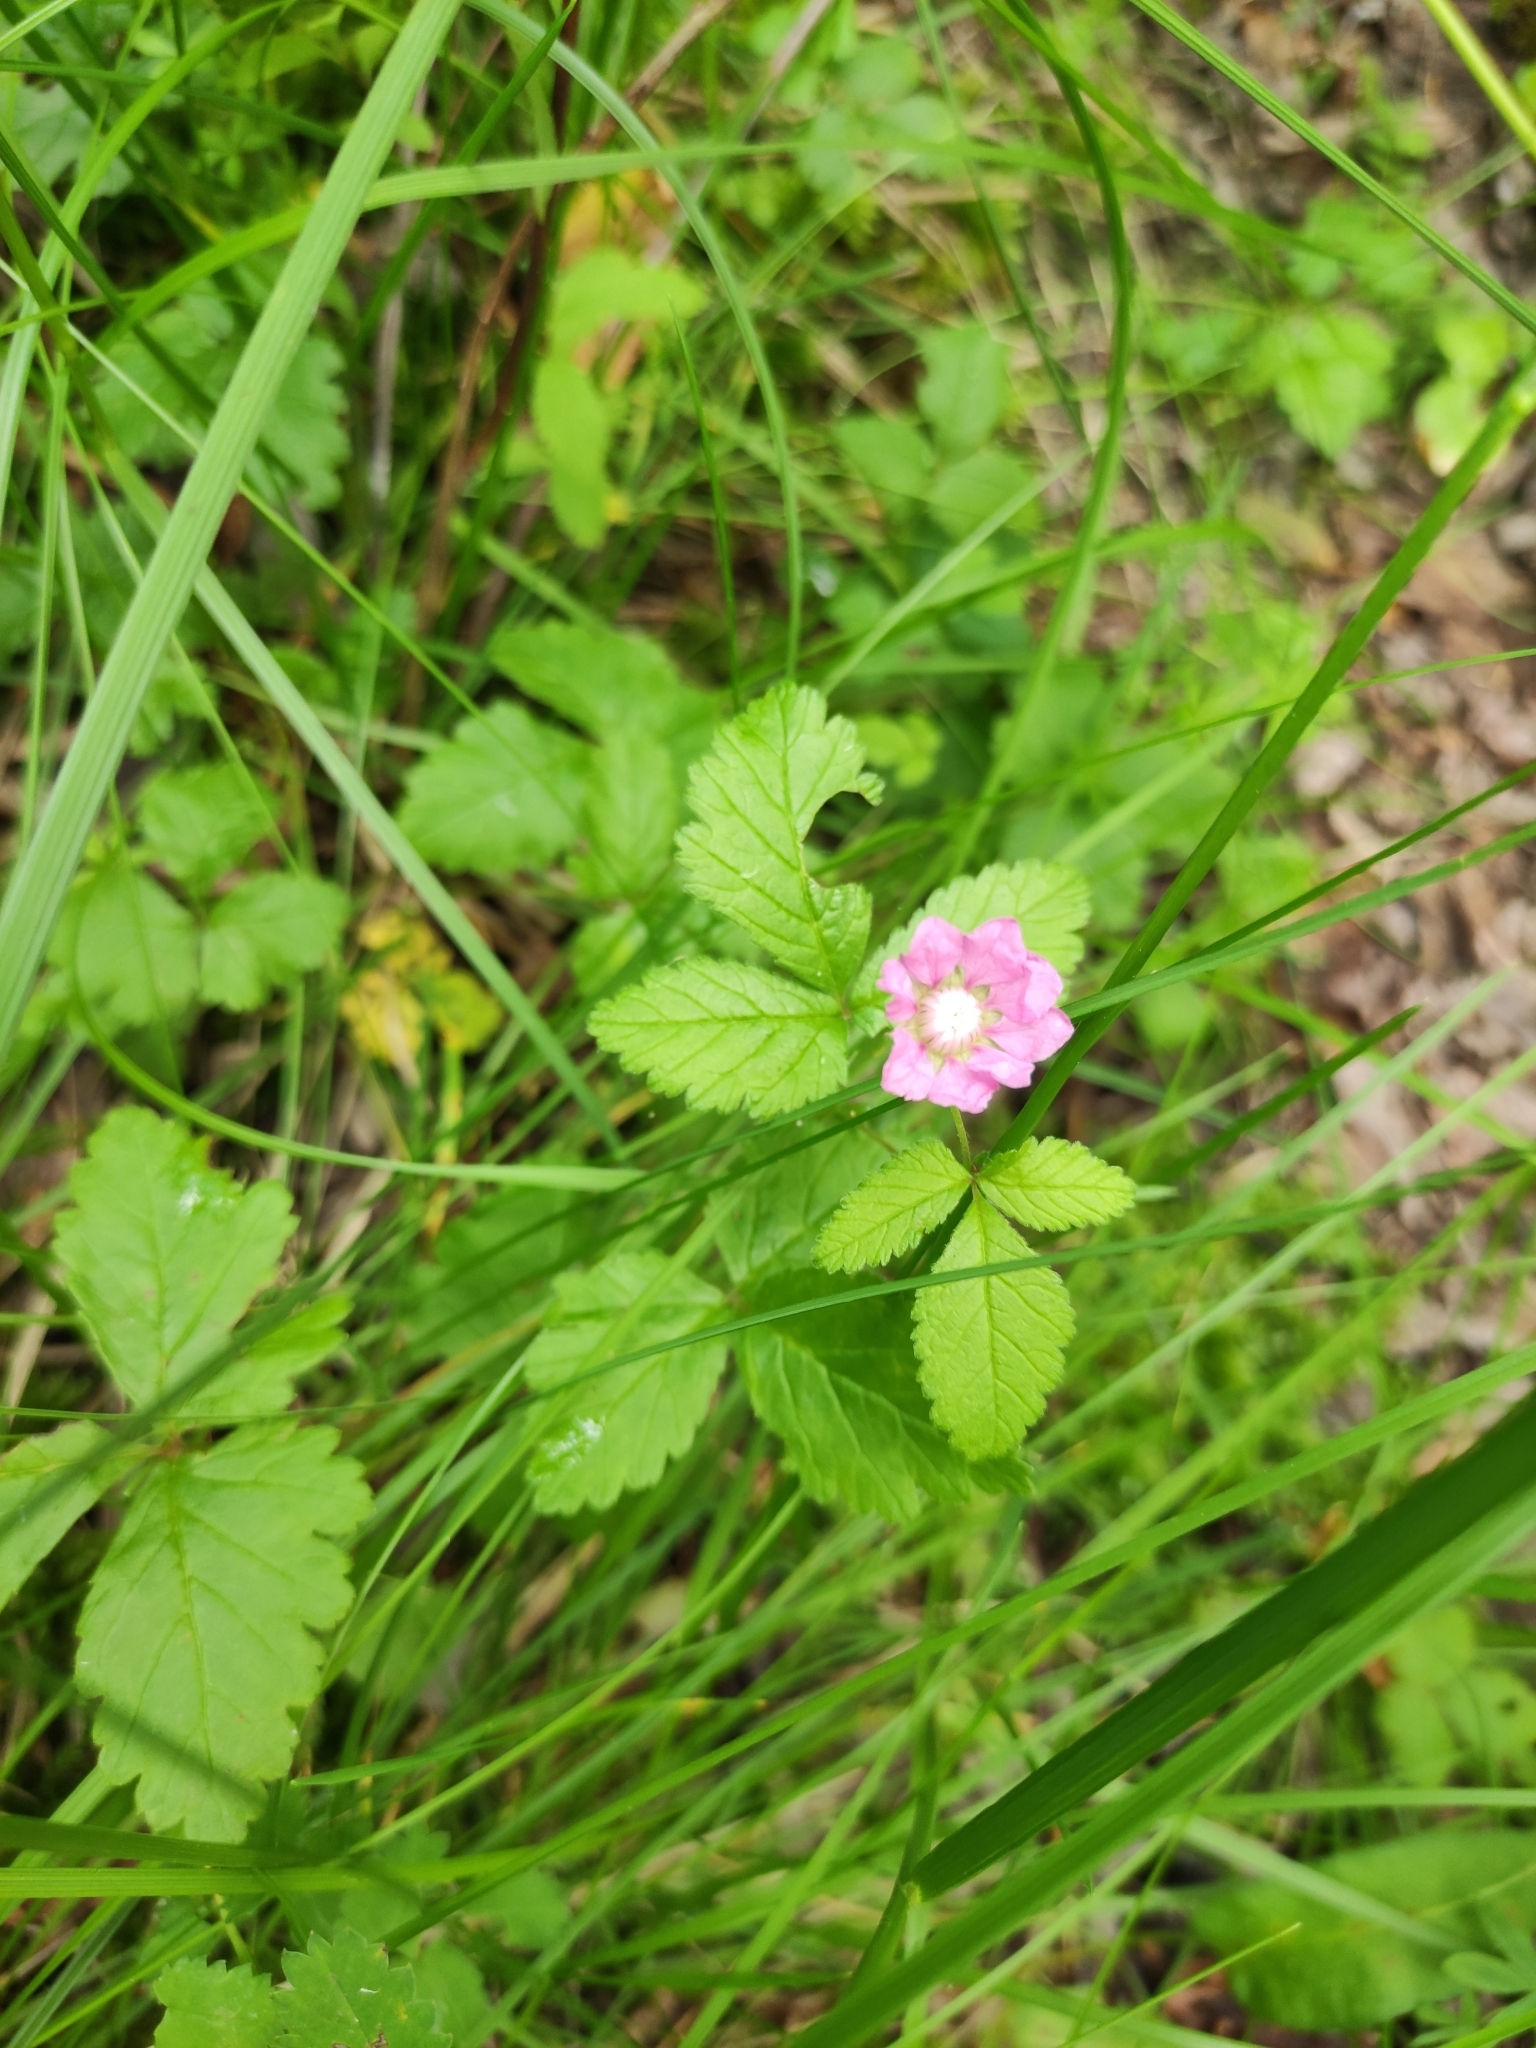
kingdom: Plantae
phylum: Tracheophyta
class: Magnoliopsida
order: Rosales
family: Rosaceae
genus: Rubus
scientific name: Rubus arcticus
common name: Arctic bramble
